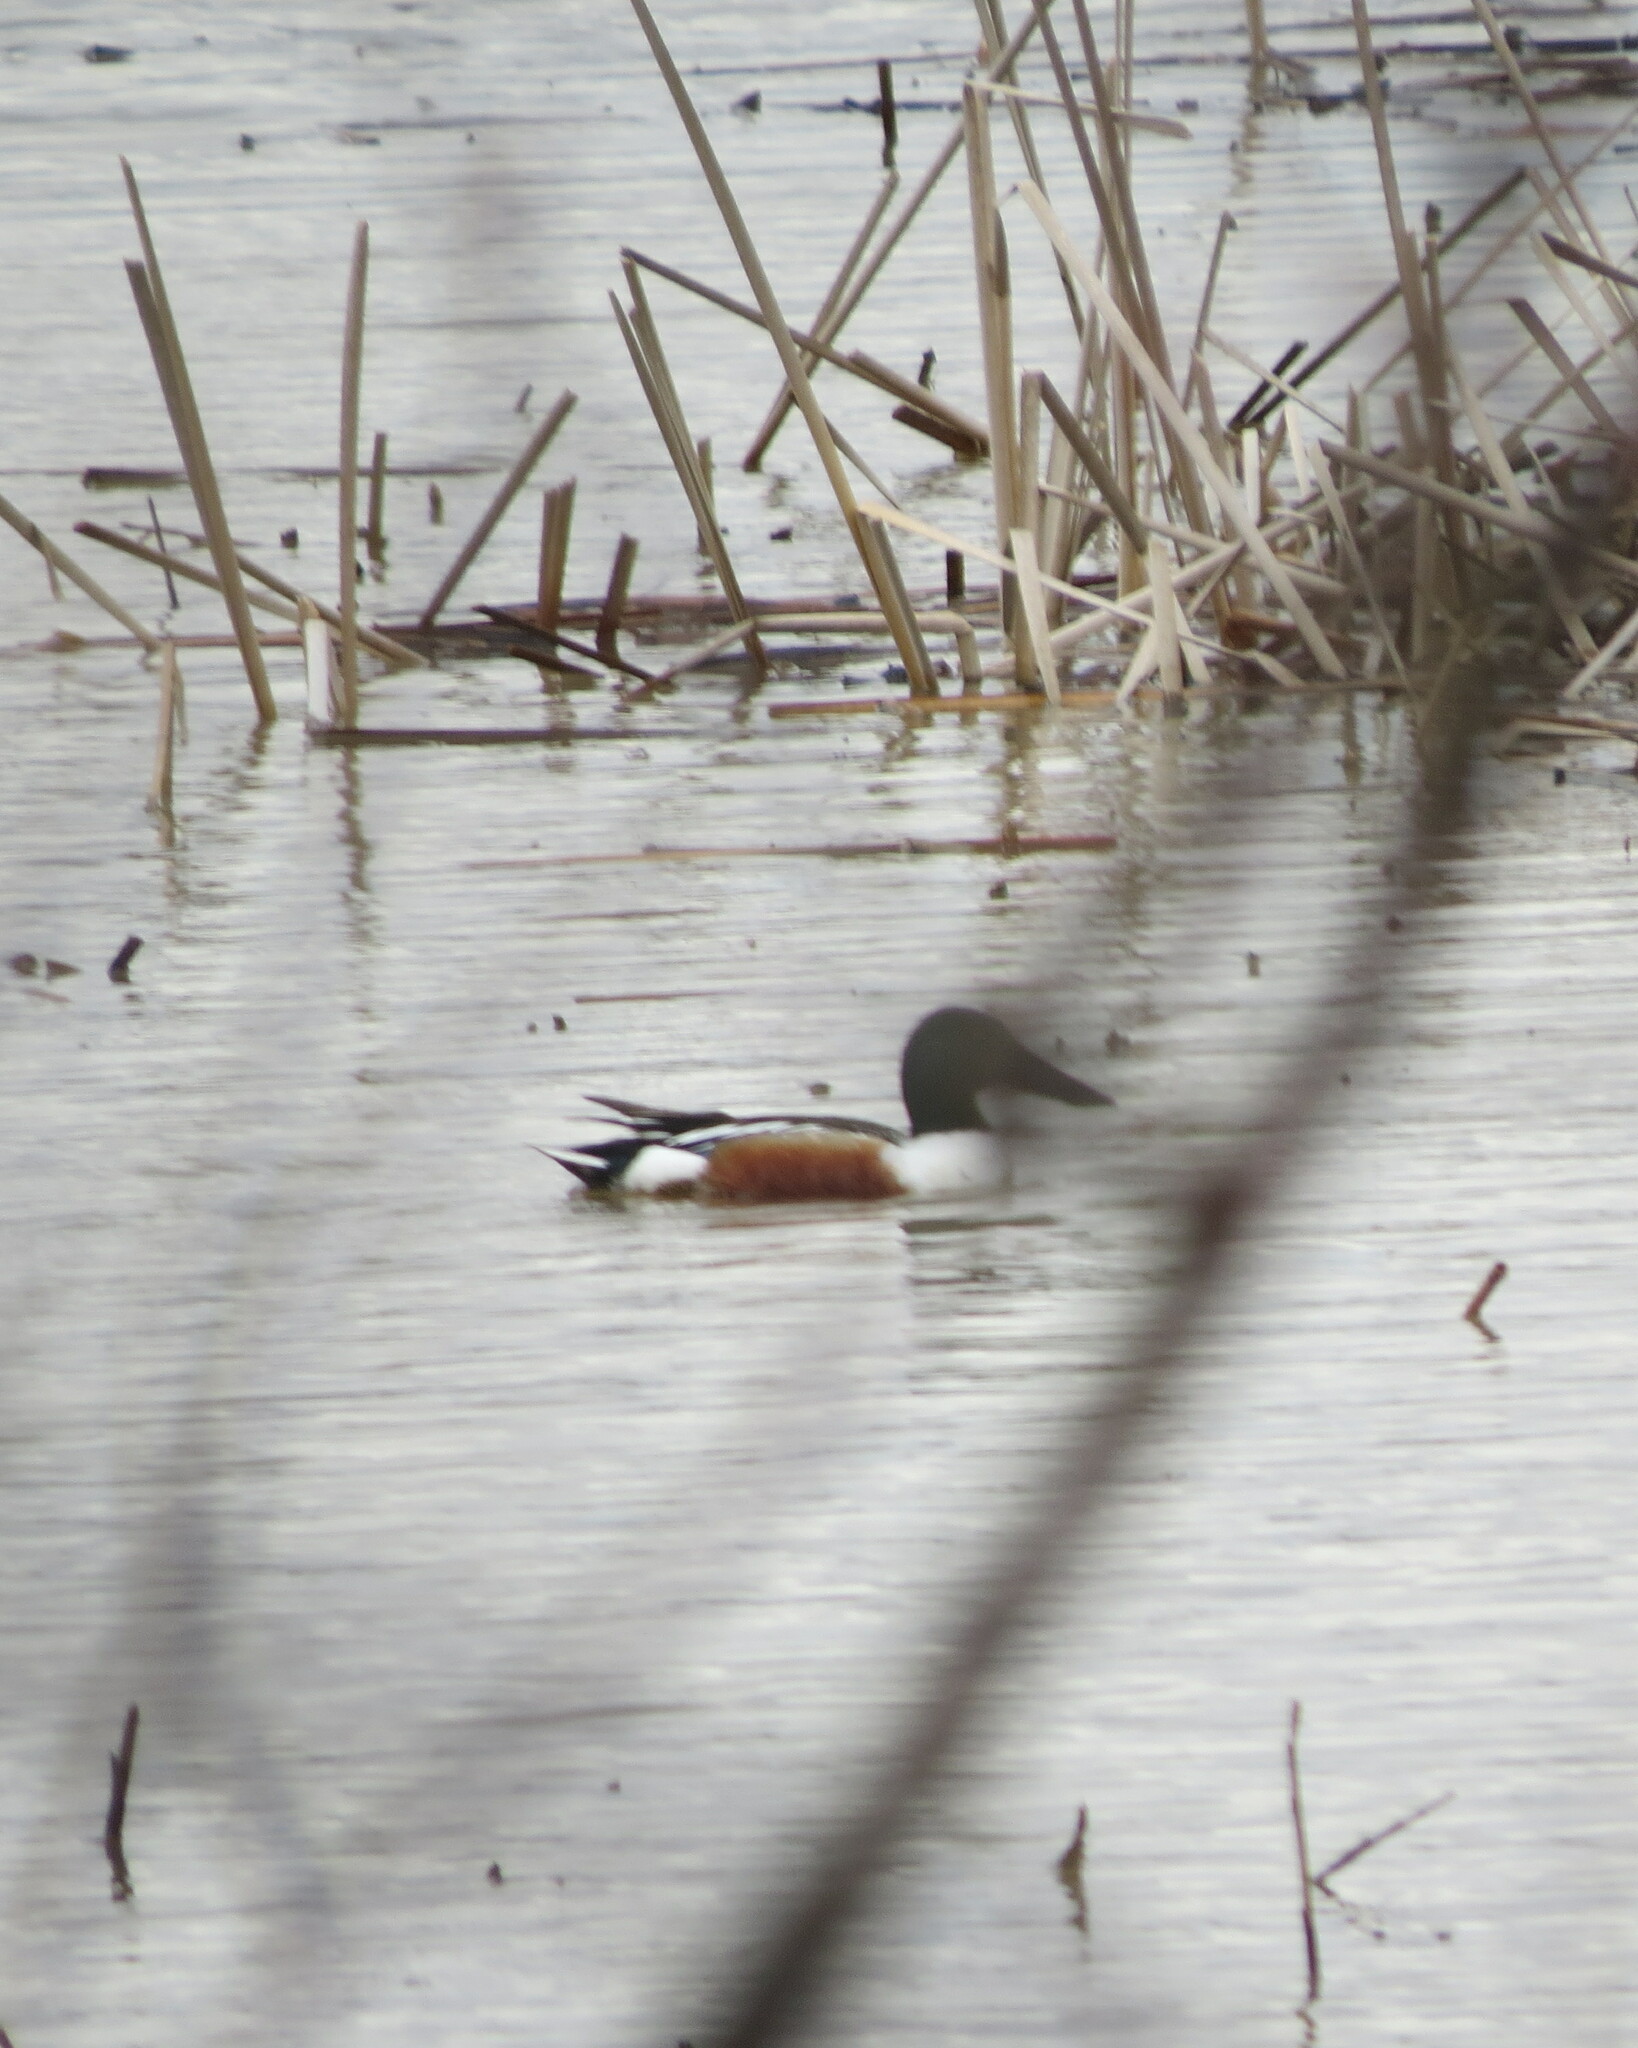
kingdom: Animalia
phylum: Chordata
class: Aves
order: Anseriformes
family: Anatidae
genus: Spatula
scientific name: Spatula clypeata
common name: Northern shoveler
